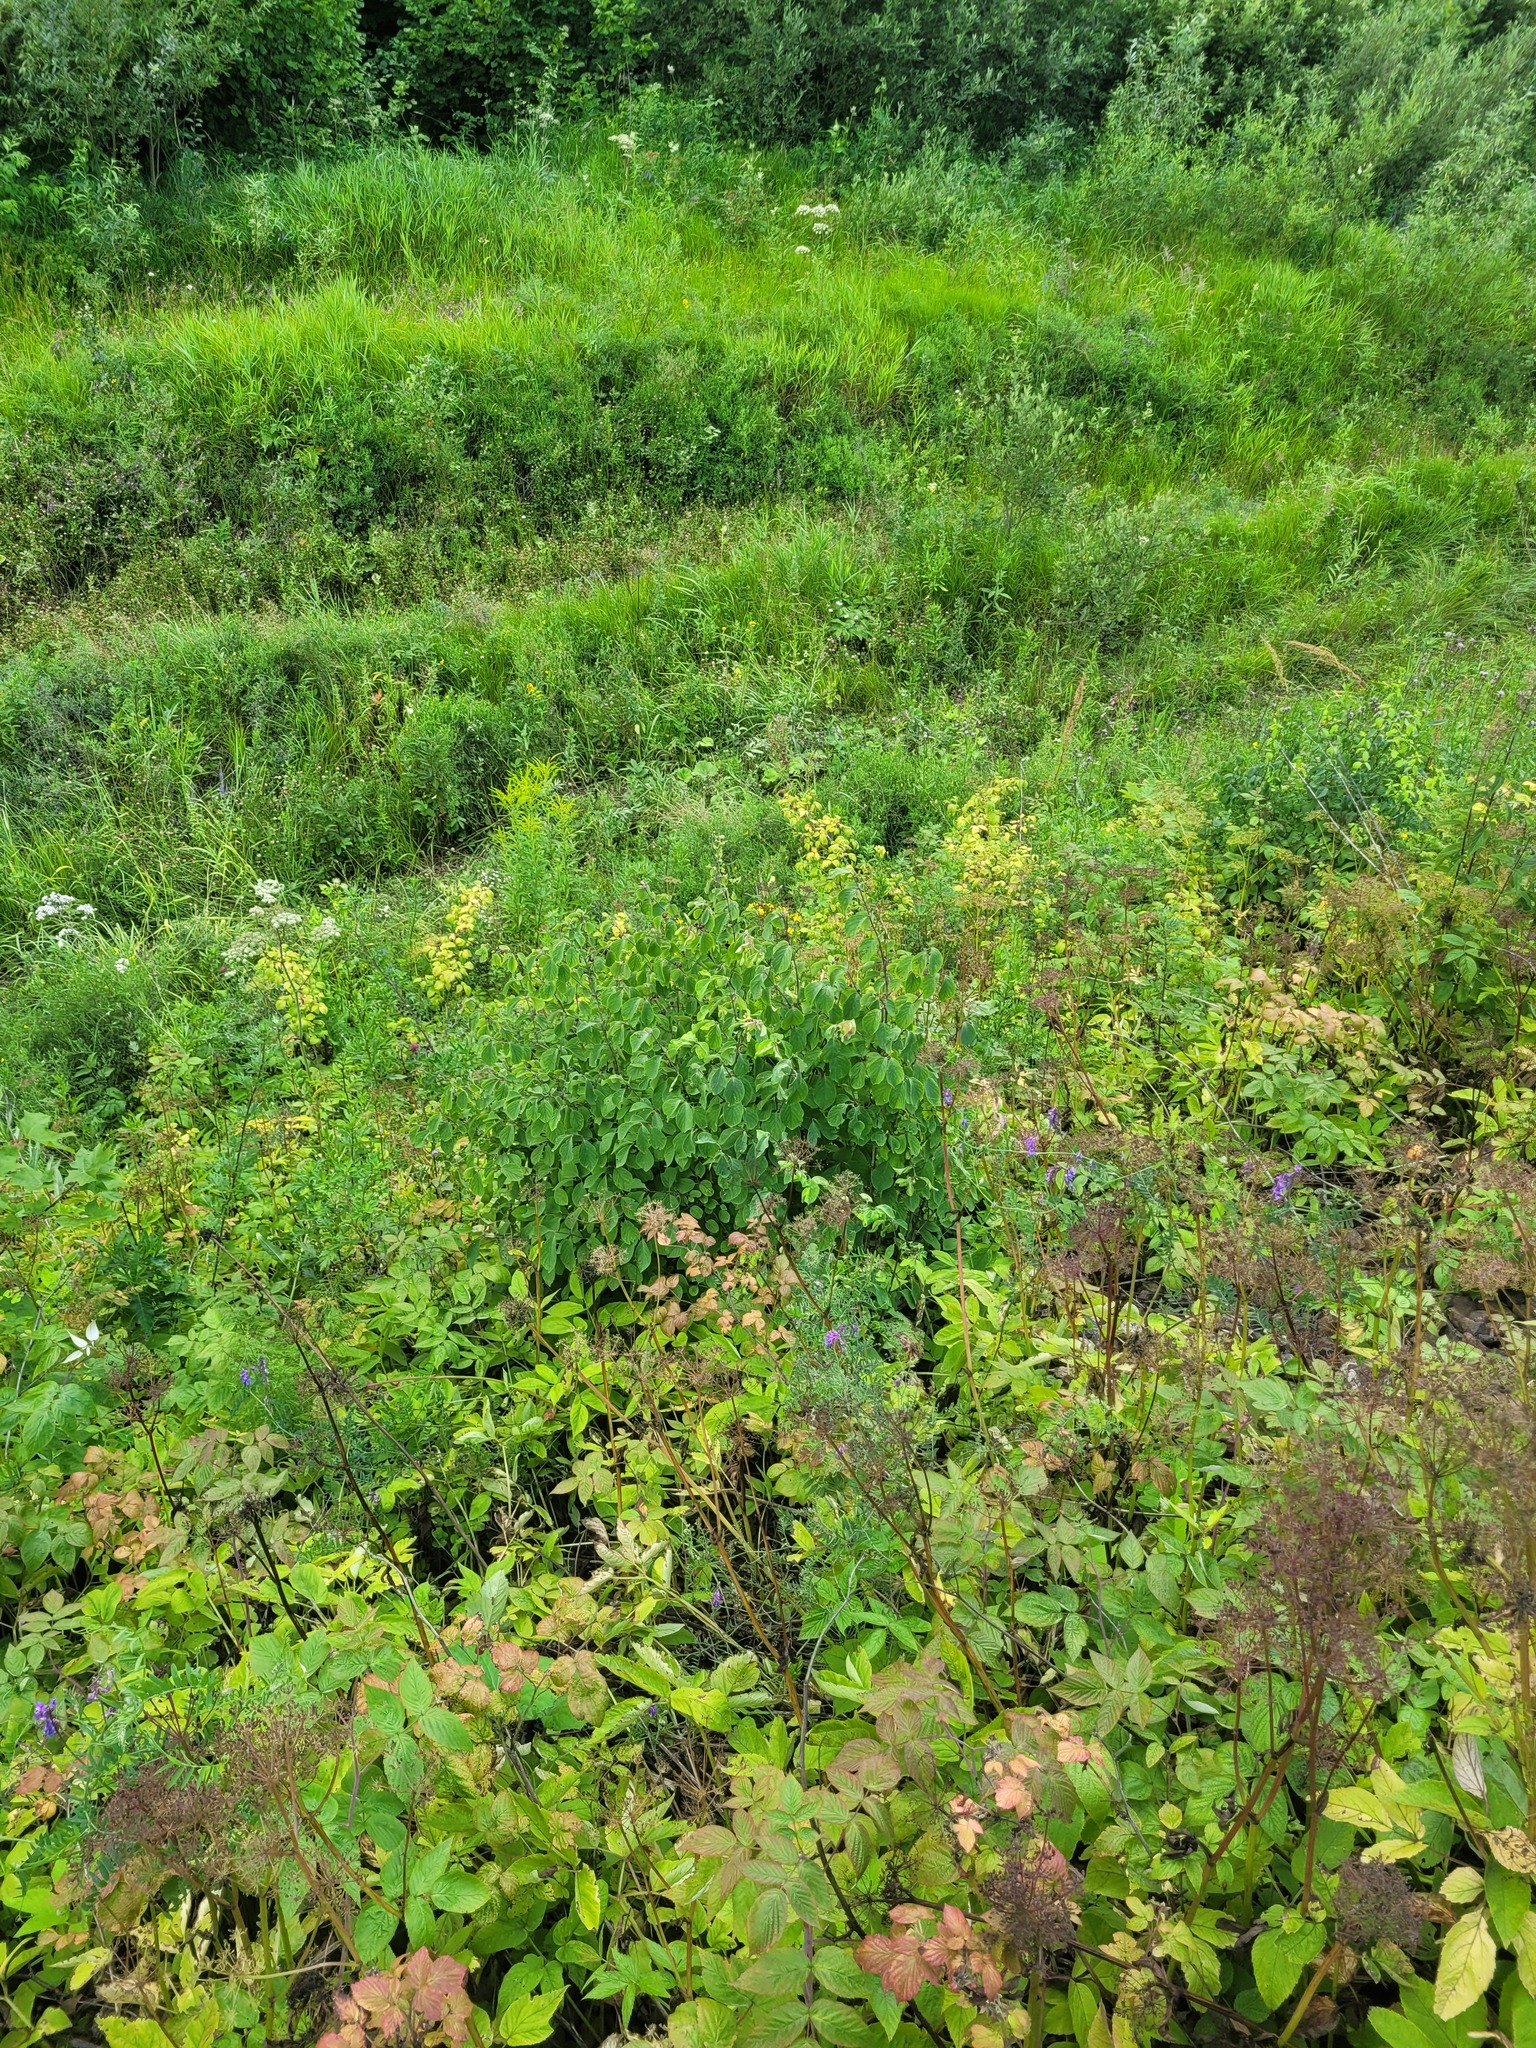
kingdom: Plantae
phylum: Tracheophyta
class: Magnoliopsida
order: Dipsacales
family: Caprifoliaceae
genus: Lonicera
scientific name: Lonicera xylosteum
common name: Fly honeysuckle
